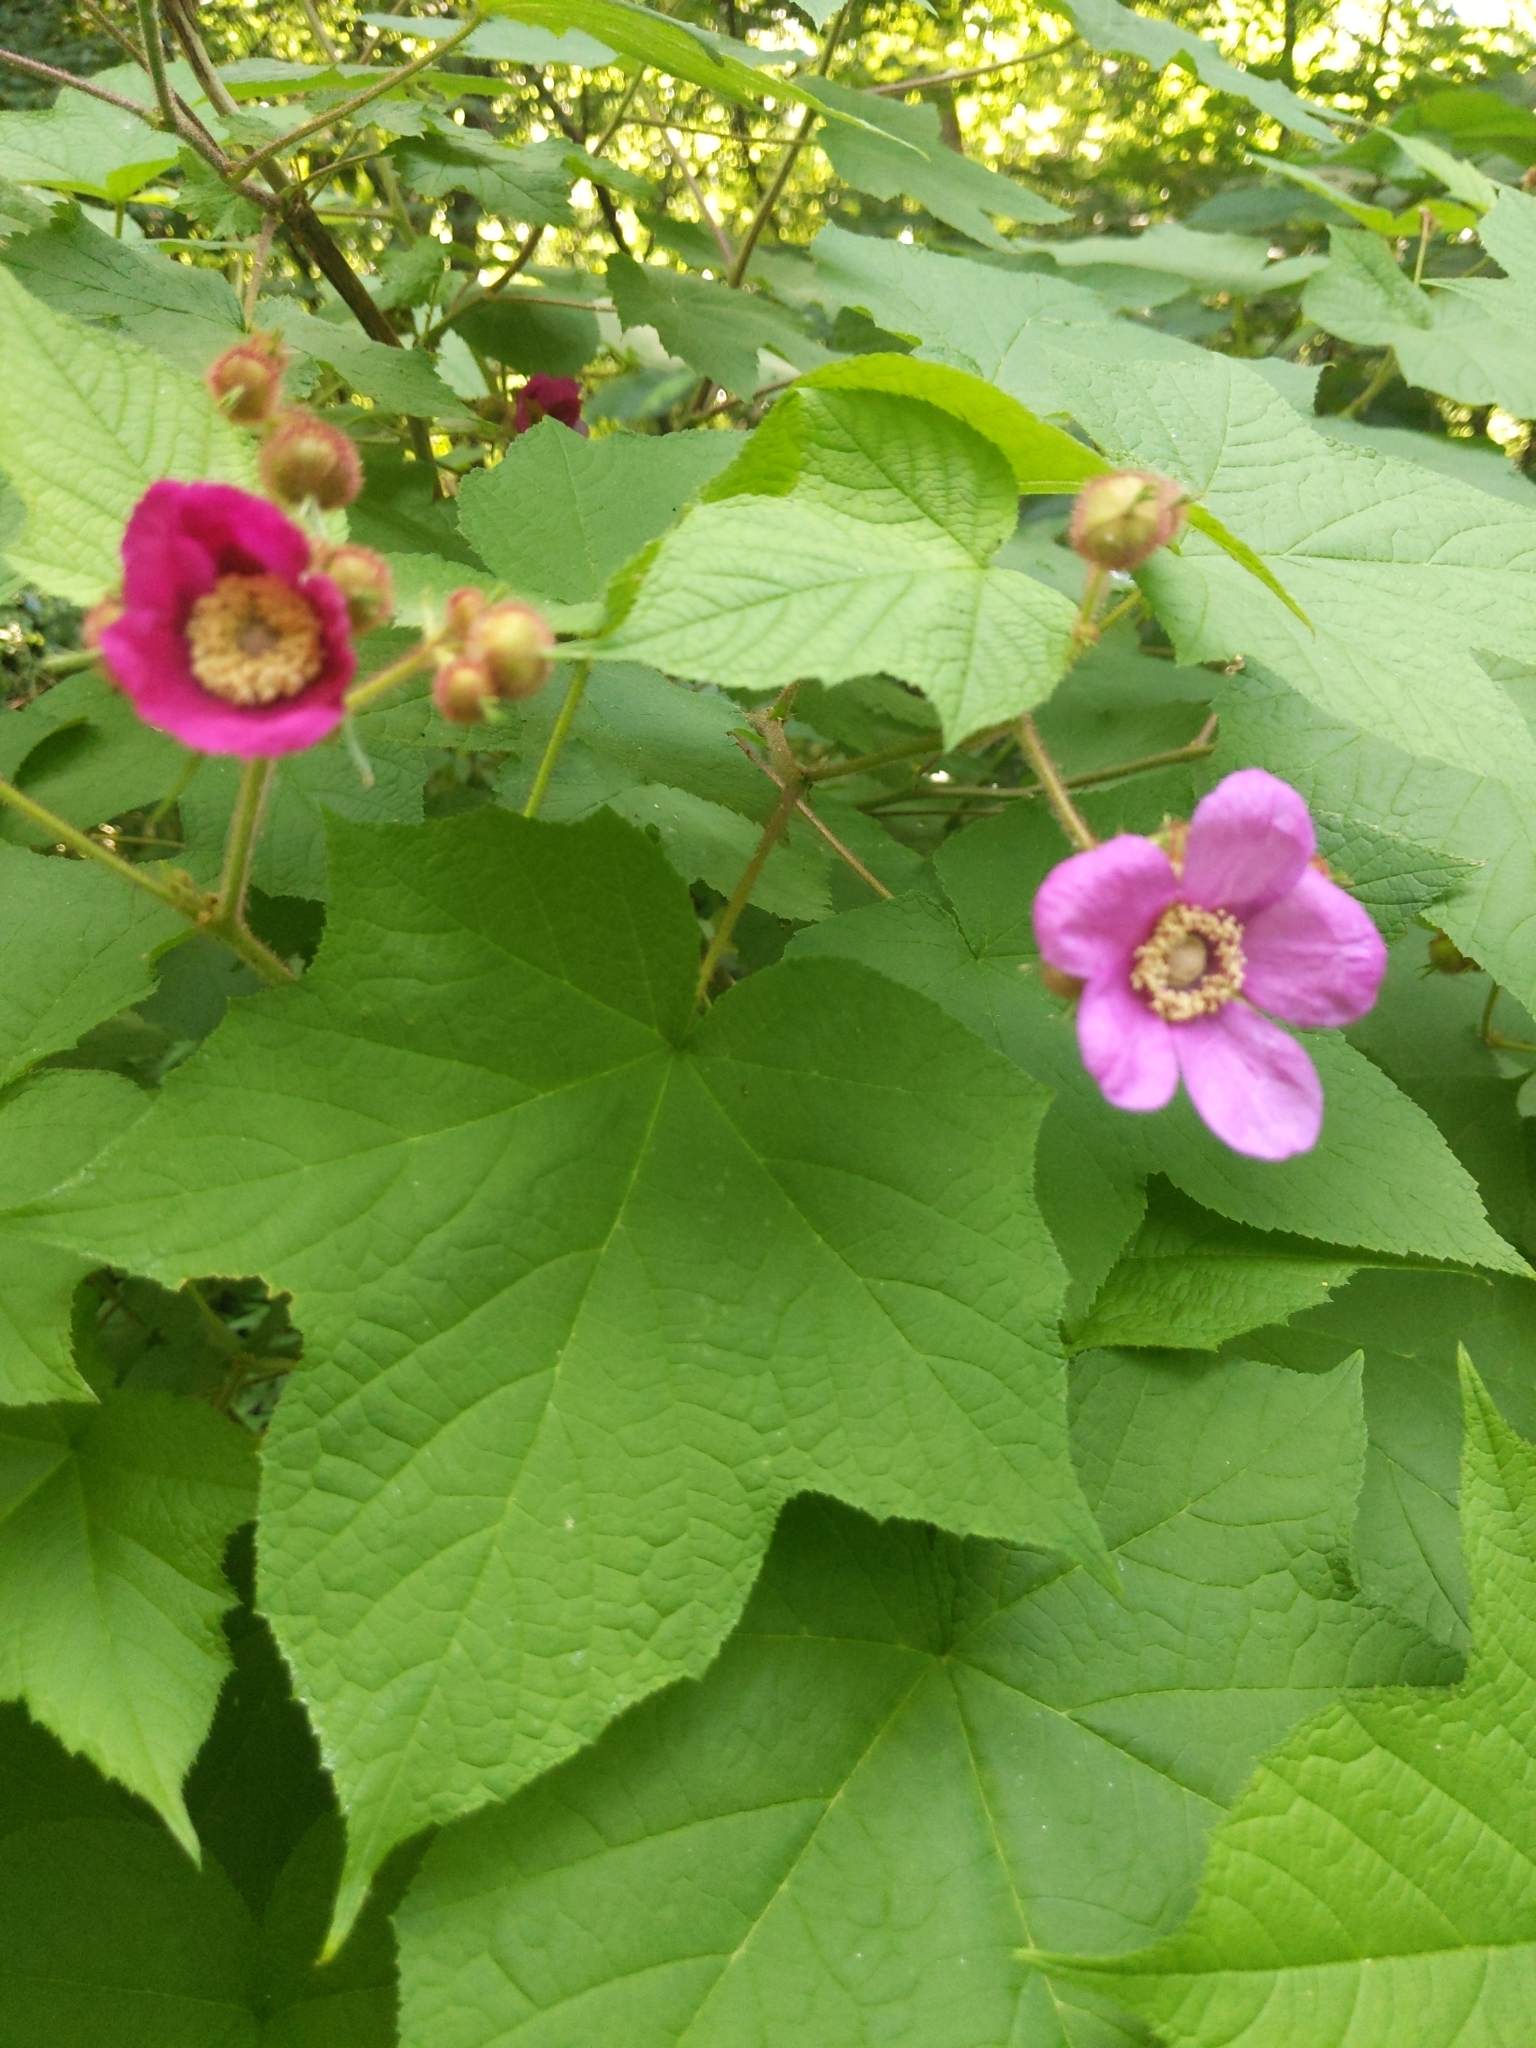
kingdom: Plantae
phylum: Tracheophyta
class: Magnoliopsida
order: Rosales
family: Rosaceae
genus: Rubus
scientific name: Rubus odoratus
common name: Purple-flowered raspberry
